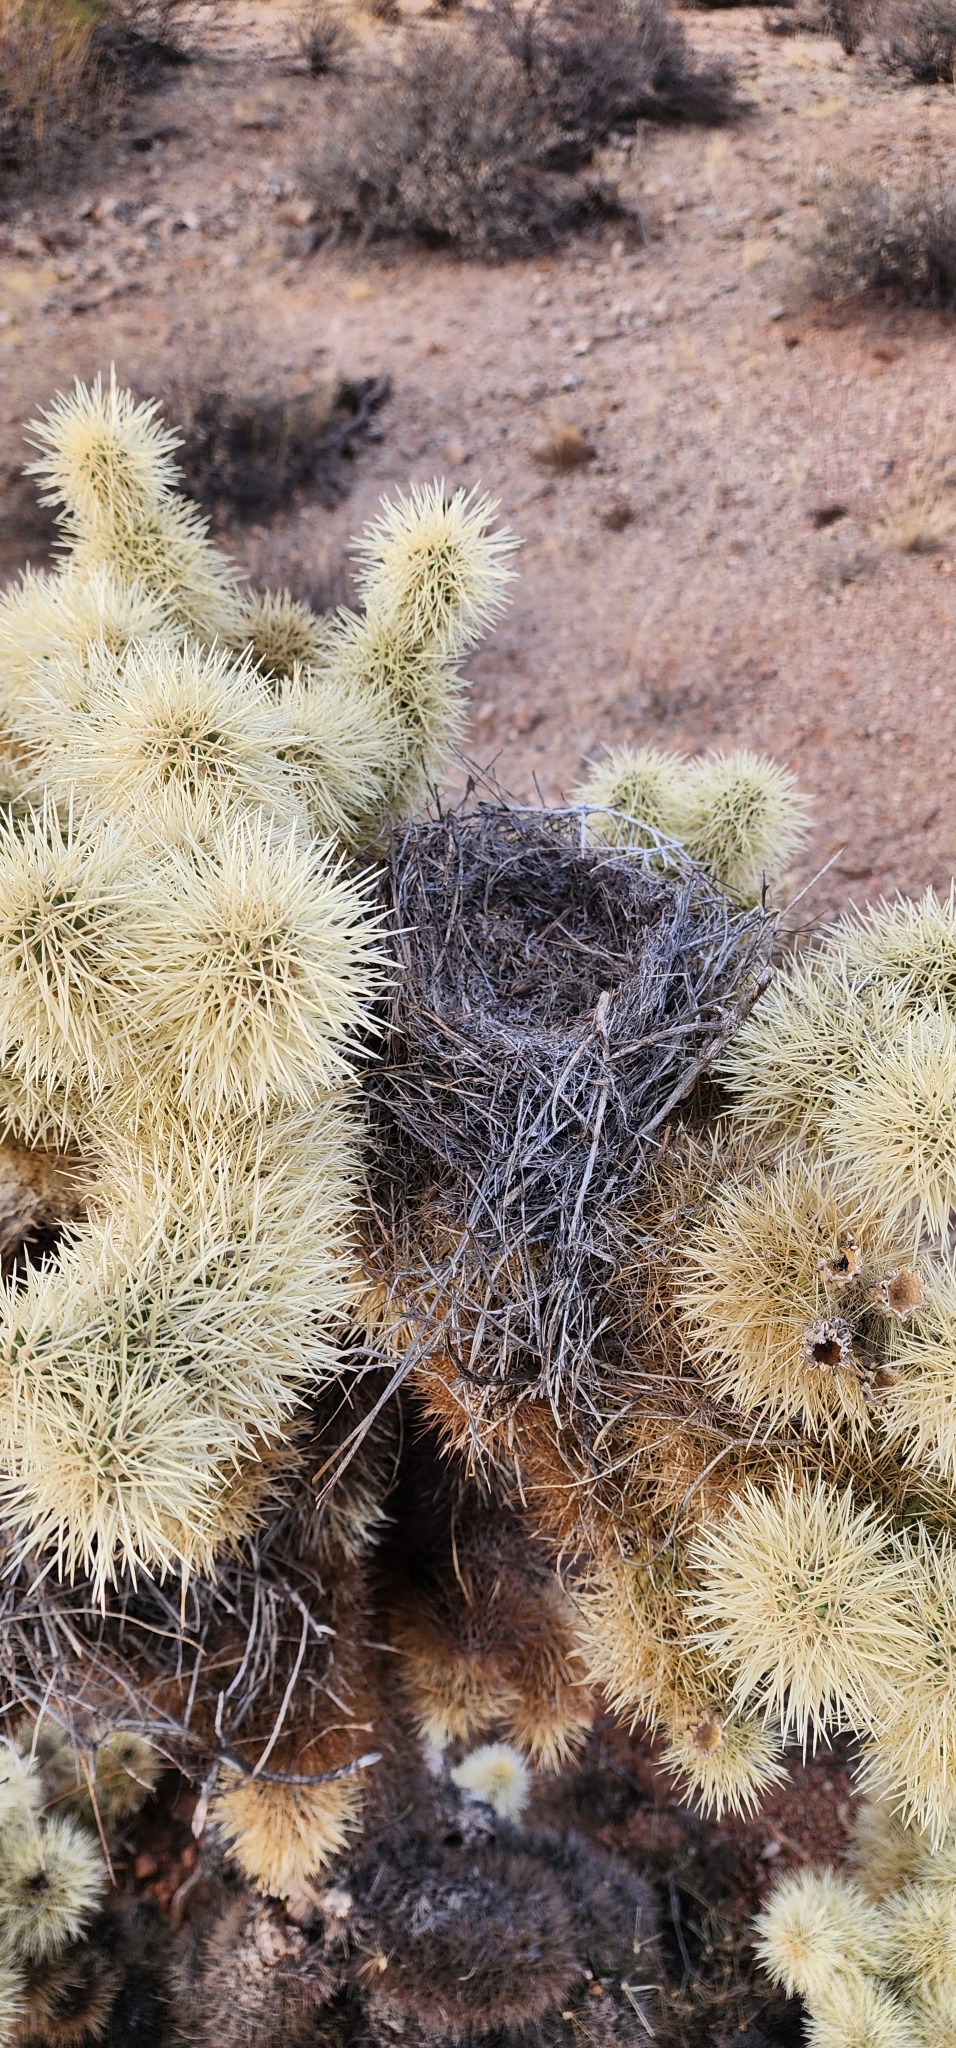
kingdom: Plantae
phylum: Tracheophyta
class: Magnoliopsida
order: Caryophyllales
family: Cactaceae
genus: Cylindropuntia
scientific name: Cylindropuntia fosbergii
